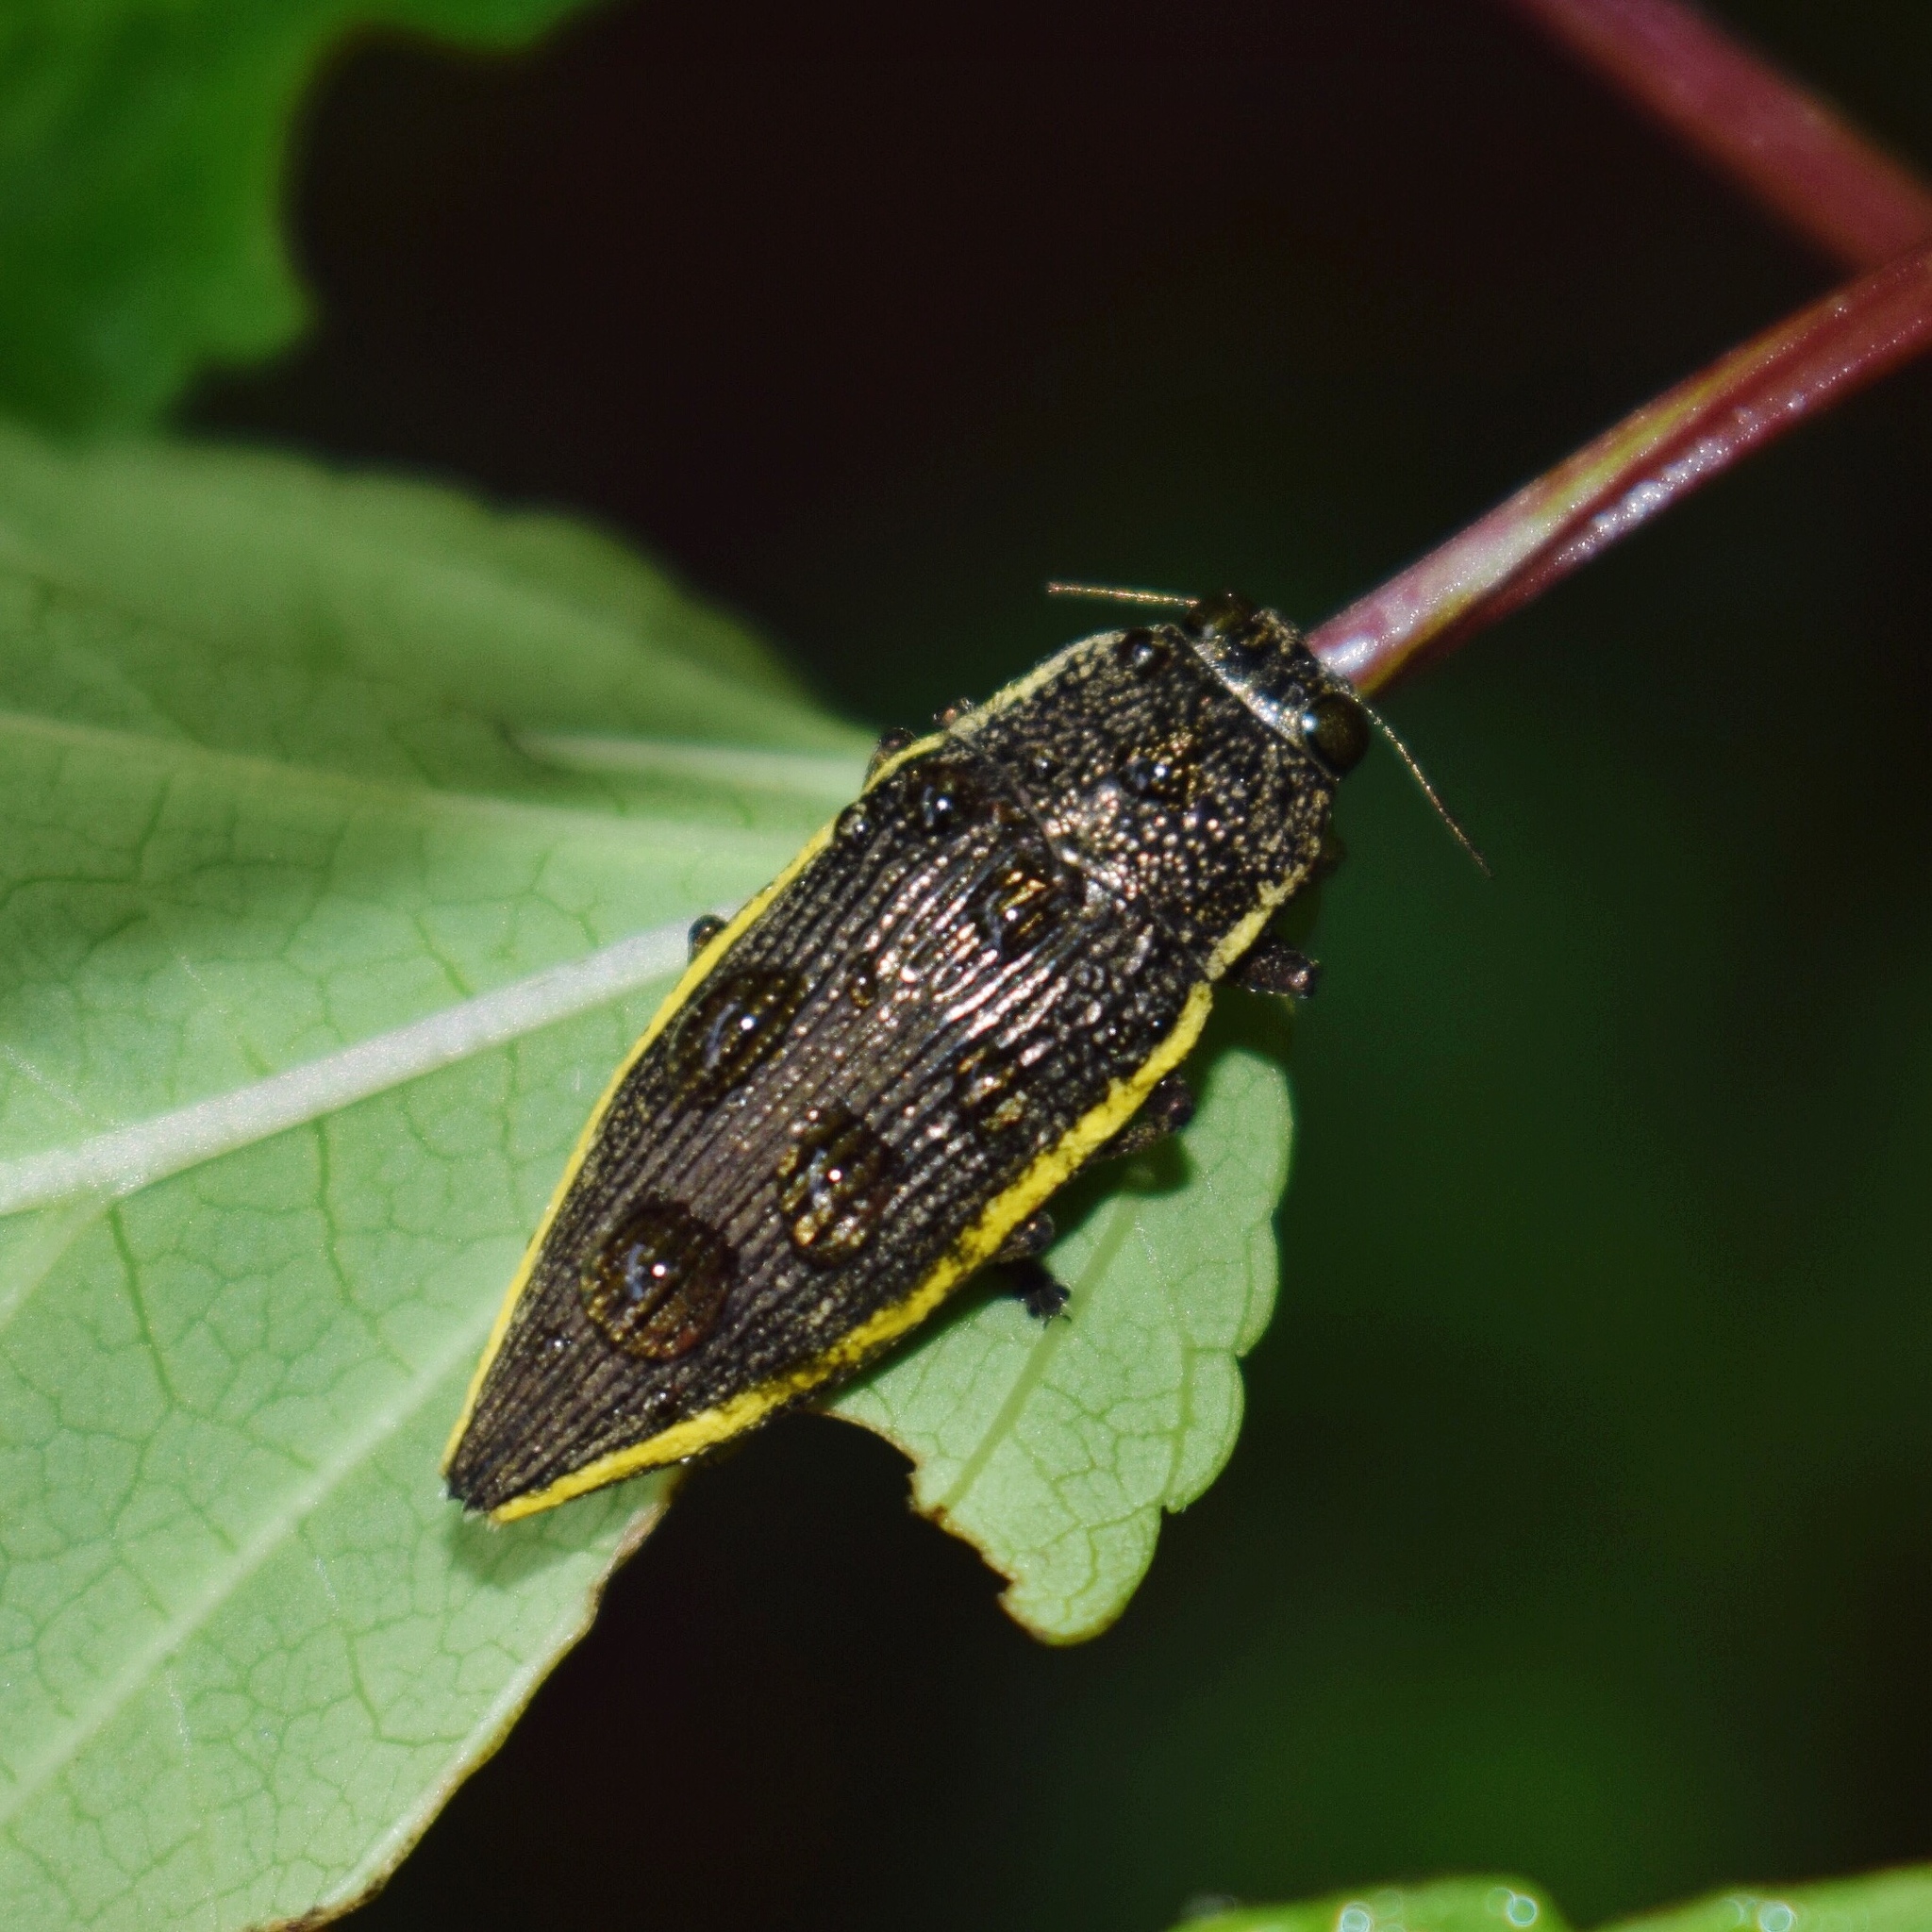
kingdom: Animalia
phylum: Arthropoda
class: Insecta
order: Coleoptera
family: Buprestidae
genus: Lampetis
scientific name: Lampetis albomarginata
